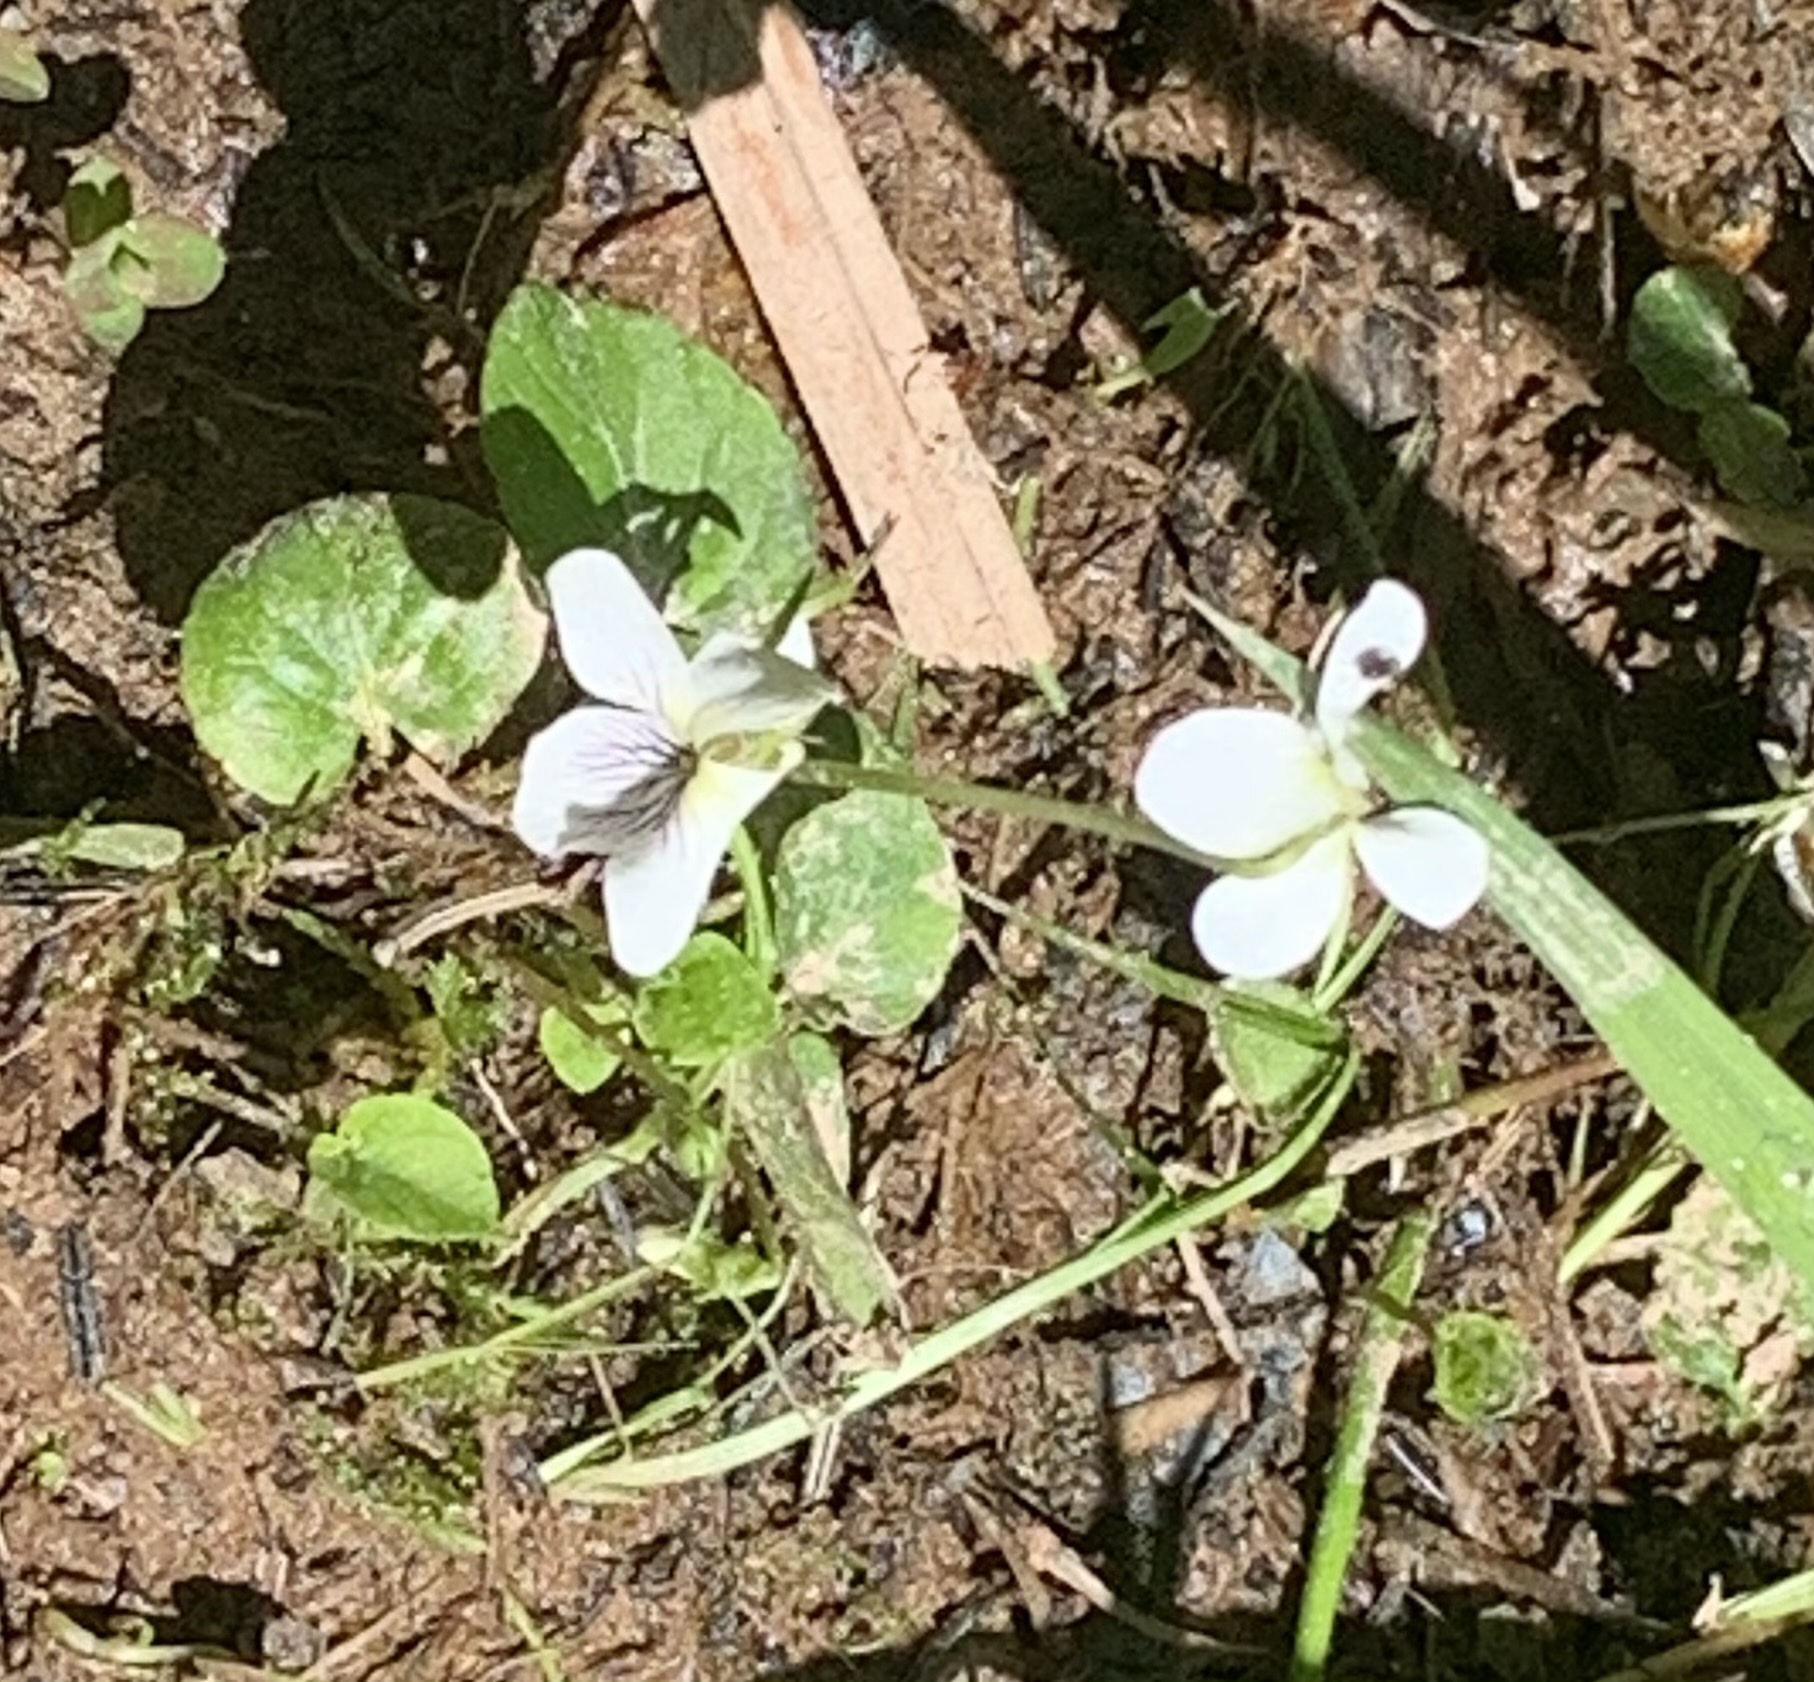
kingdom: Plantae
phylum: Tracheophyta
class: Magnoliopsida
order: Malpighiales
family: Violaceae
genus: Viola
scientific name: Viola minuscula
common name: Northern white violet
